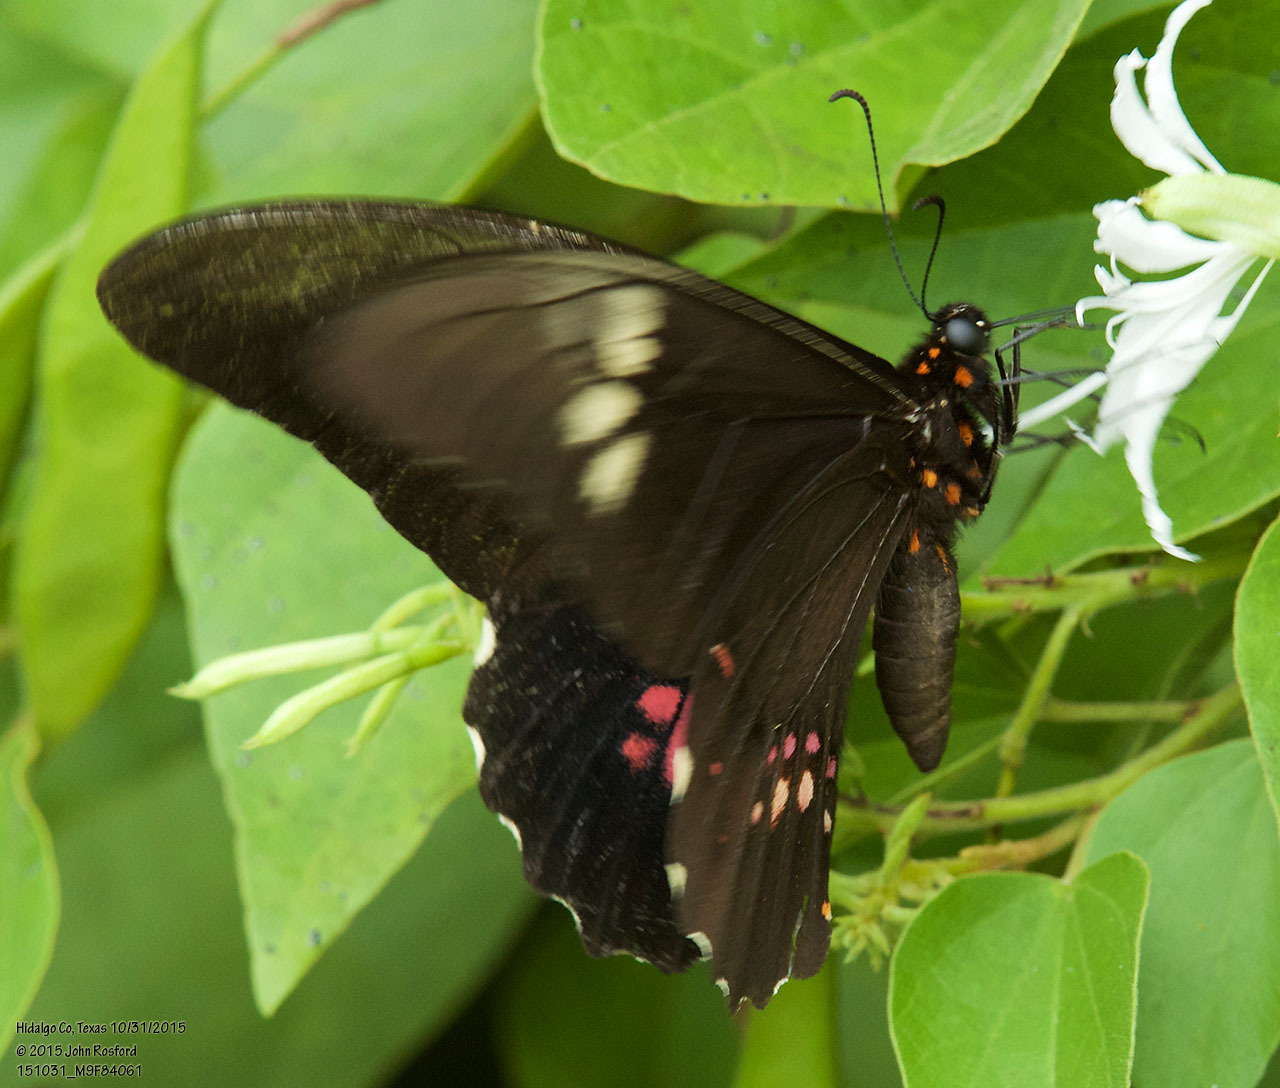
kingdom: Animalia
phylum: Arthropoda
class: Insecta
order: Lepidoptera
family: Papilionidae
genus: Papilio
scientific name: Papilio anchisiades
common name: Idaes swallowtail
